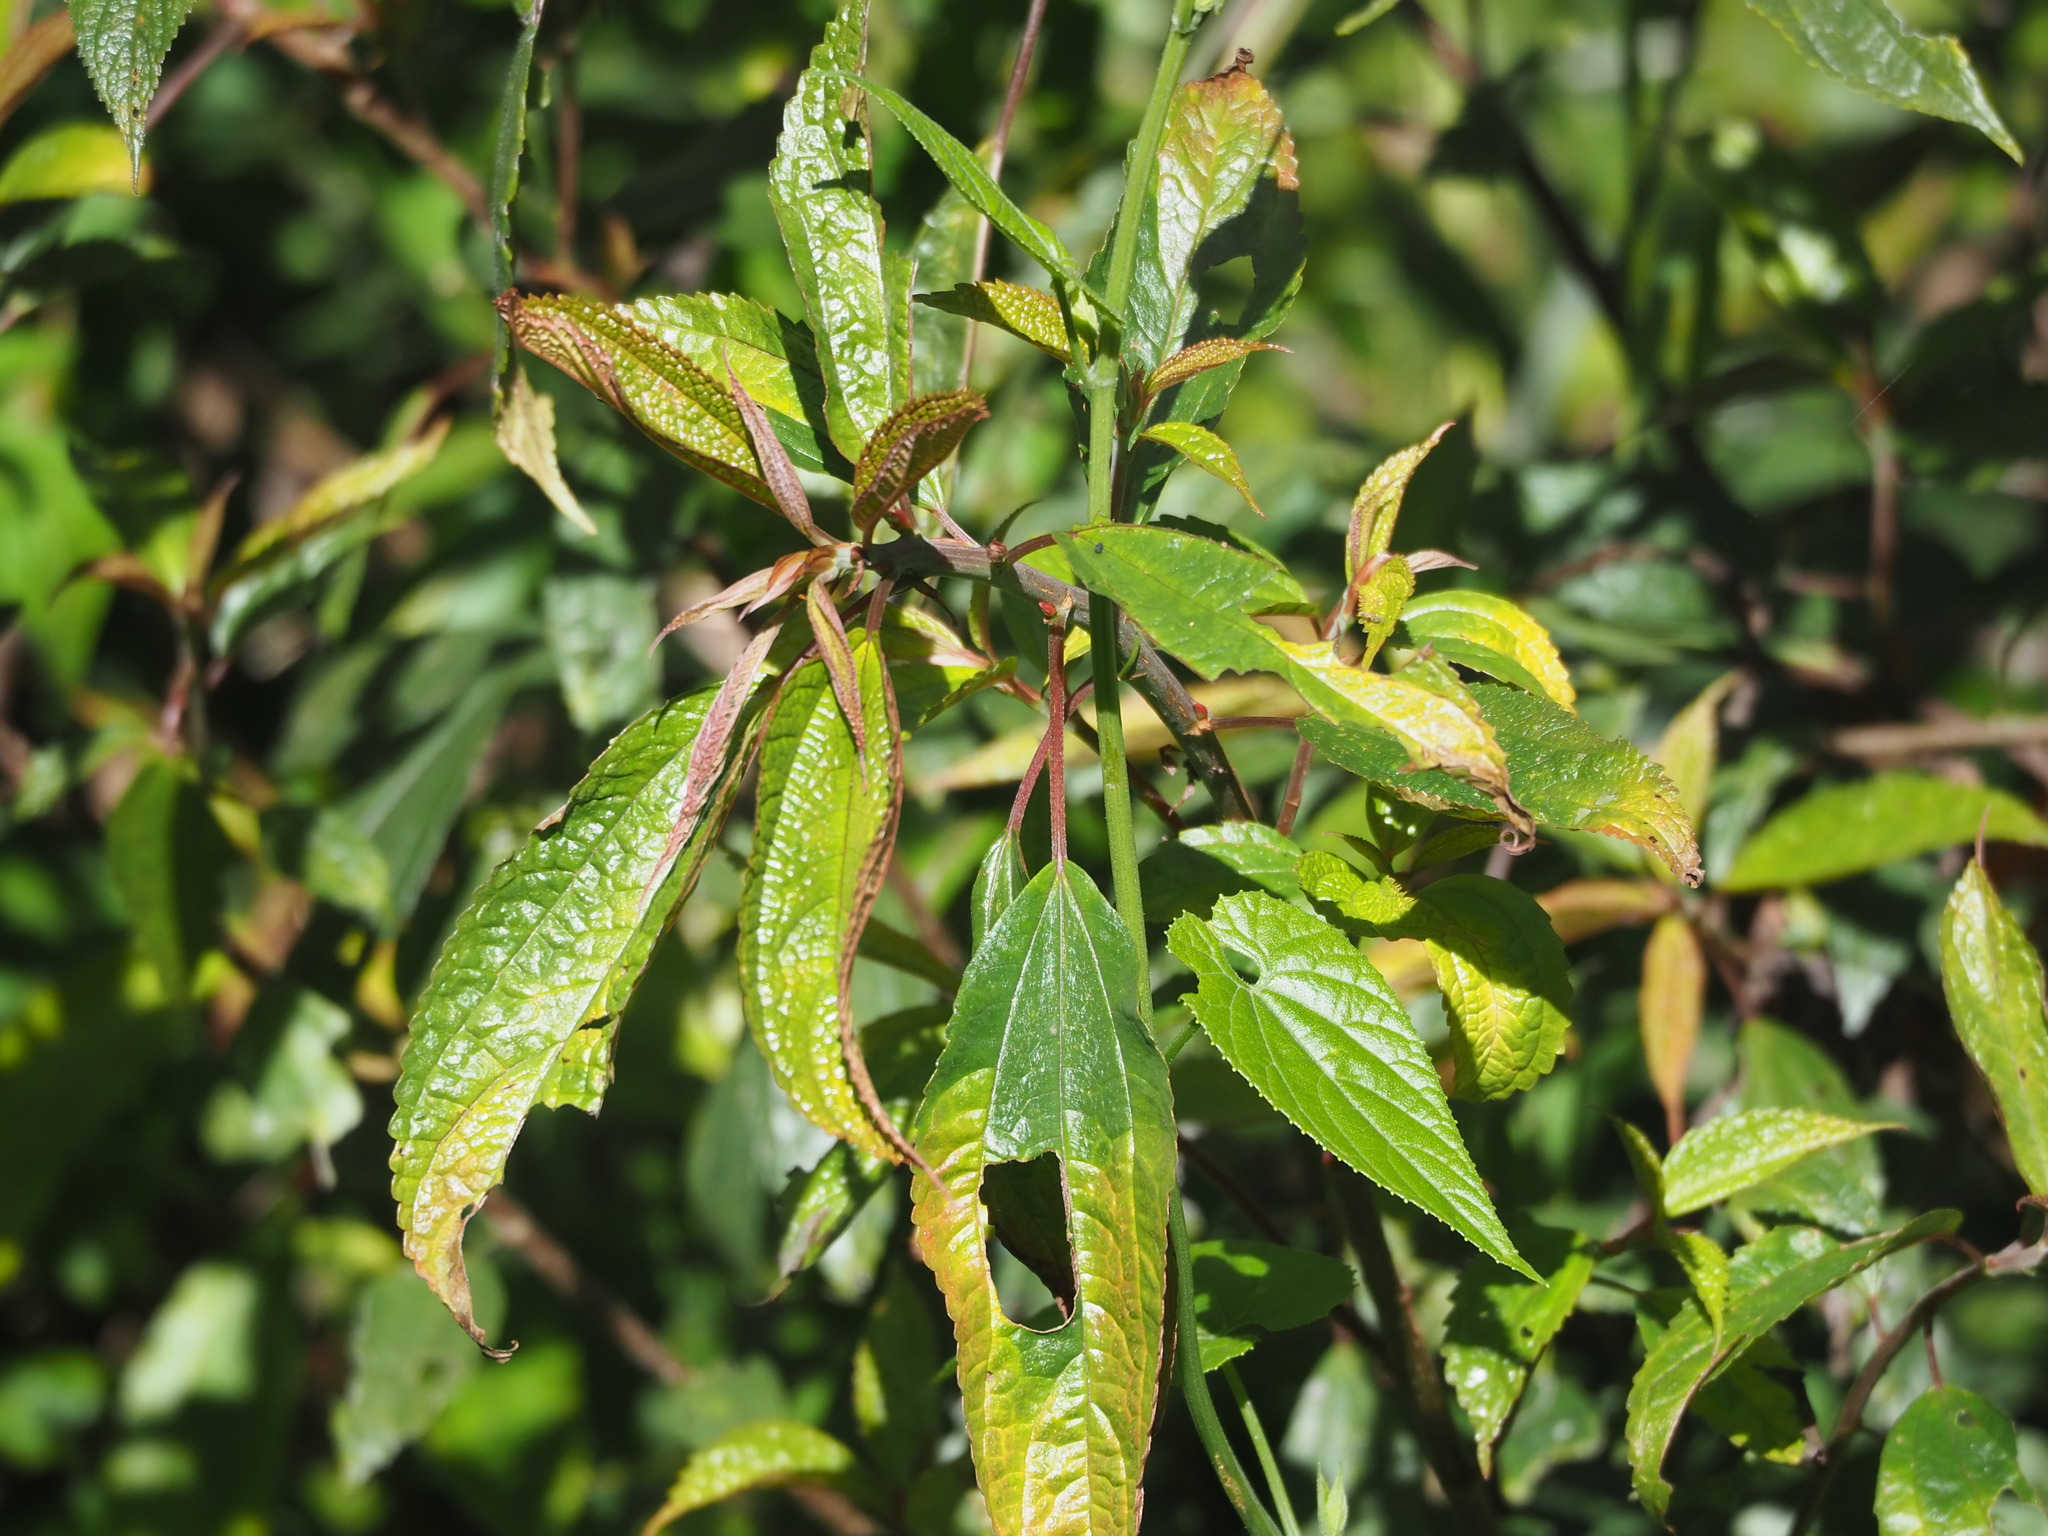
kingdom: Plantae
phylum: Tracheophyta
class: Magnoliopsida
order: Rosales
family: Urticaceae
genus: Oreocnide
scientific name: Oreocnide pedunculata
